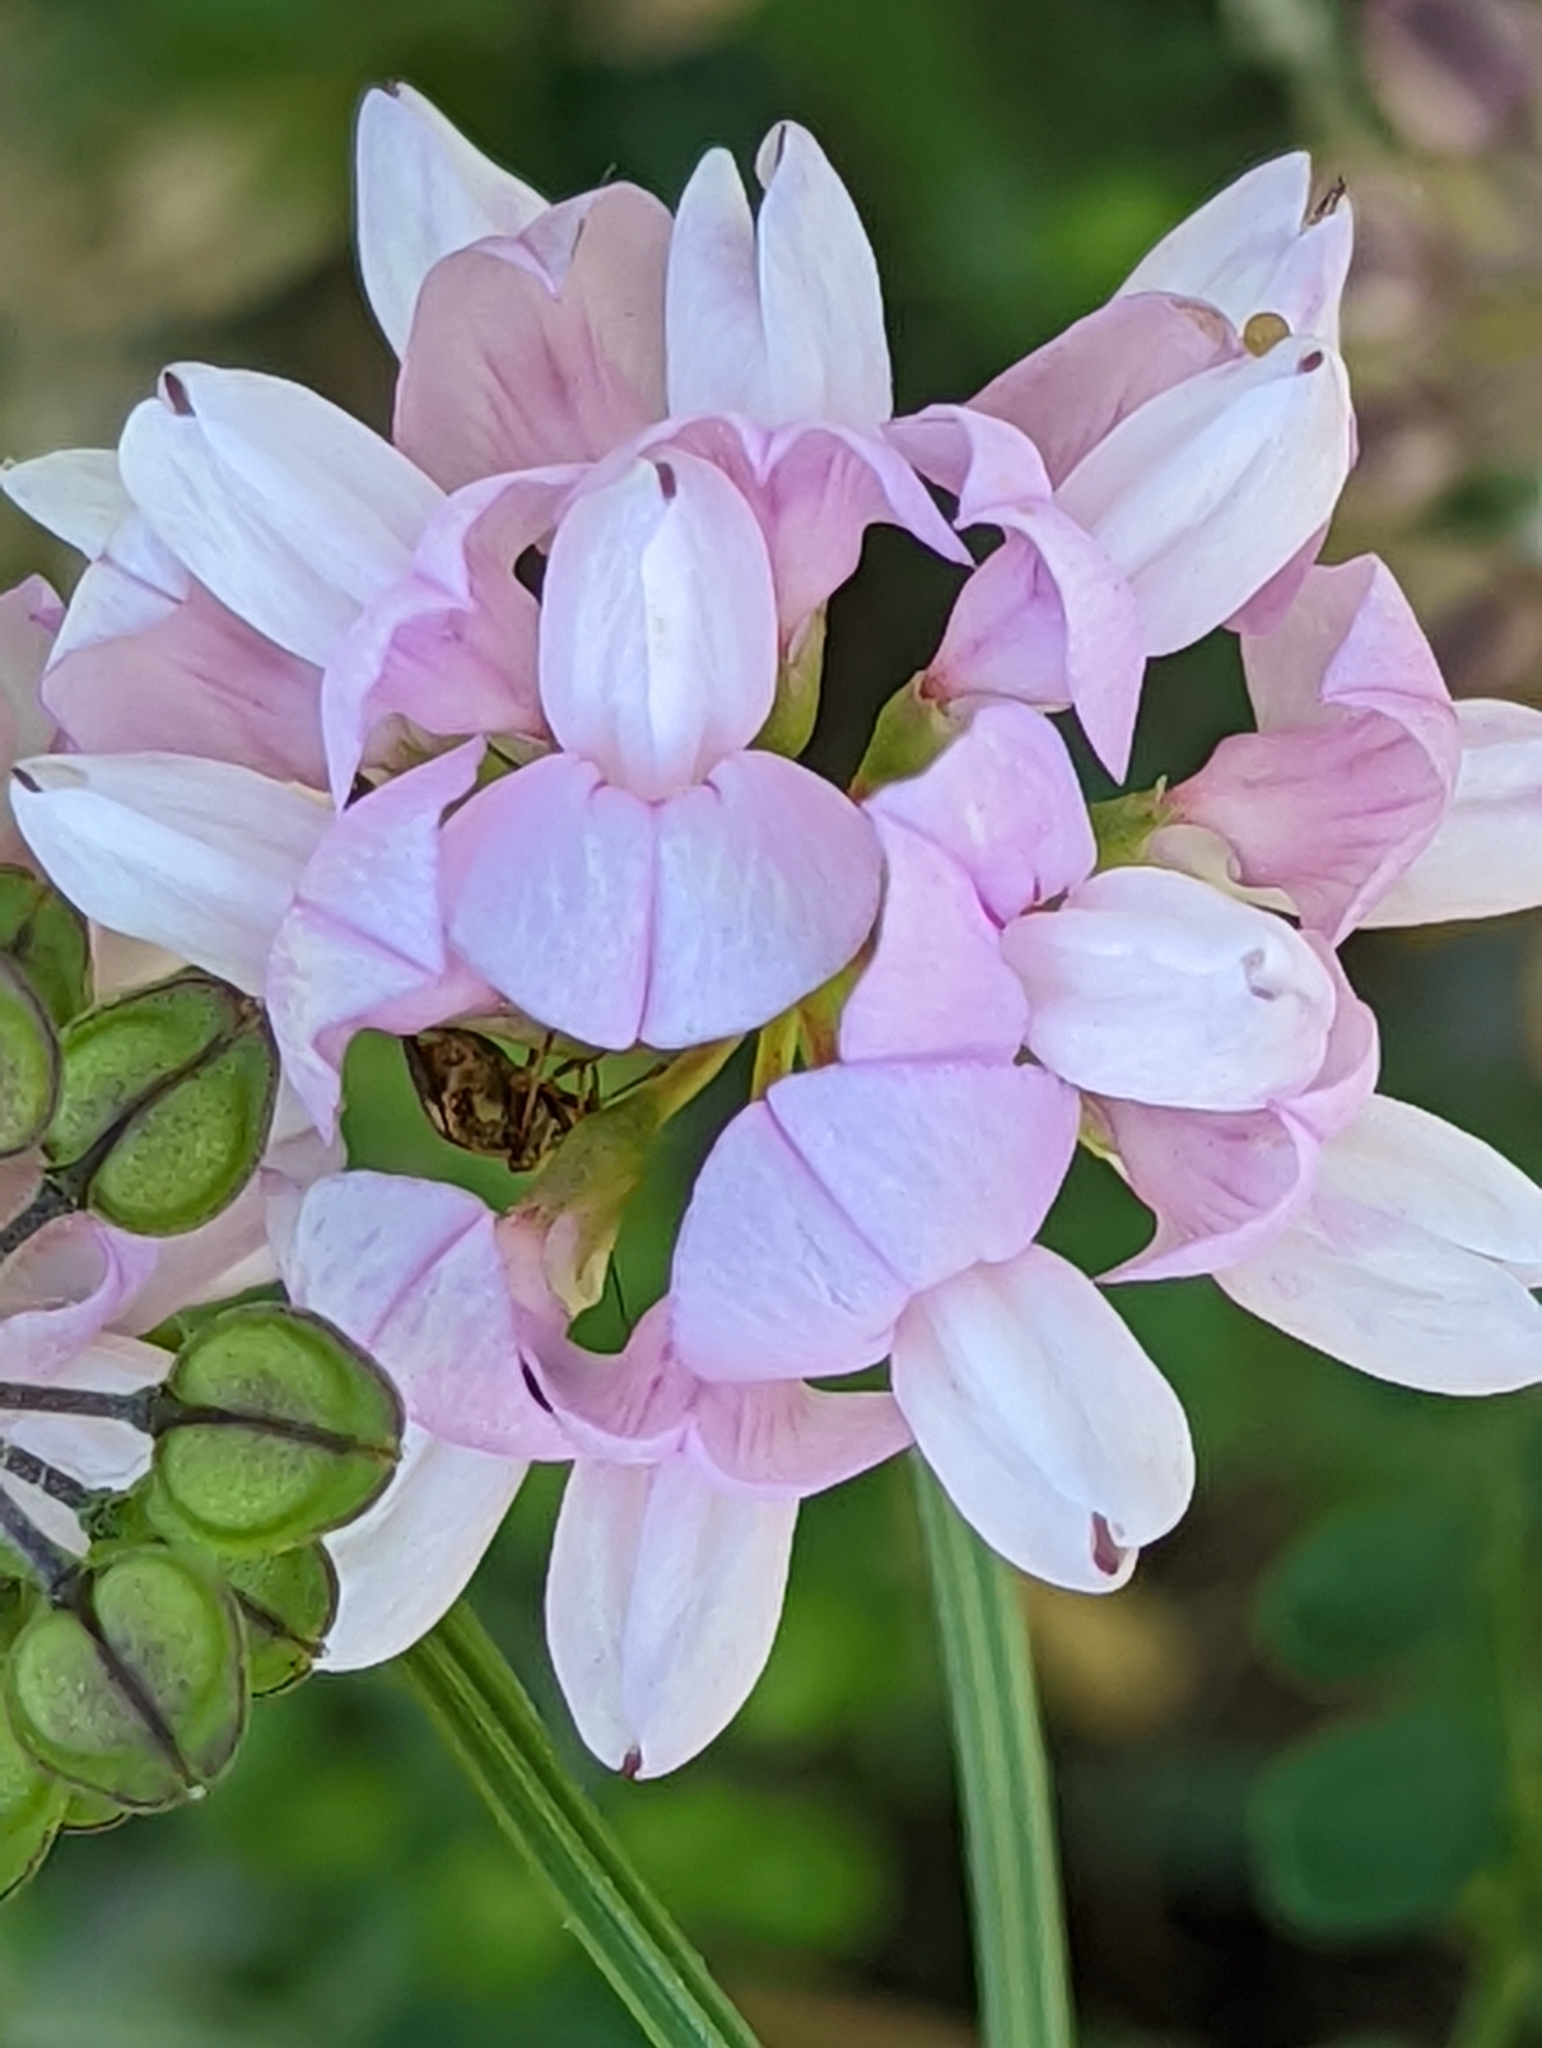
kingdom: Plantae
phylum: Tracheophyta
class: Magnoliopsida
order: Fabales
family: Fabaceae
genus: Coronilla
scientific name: Coronilla varia
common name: Crownvetch
